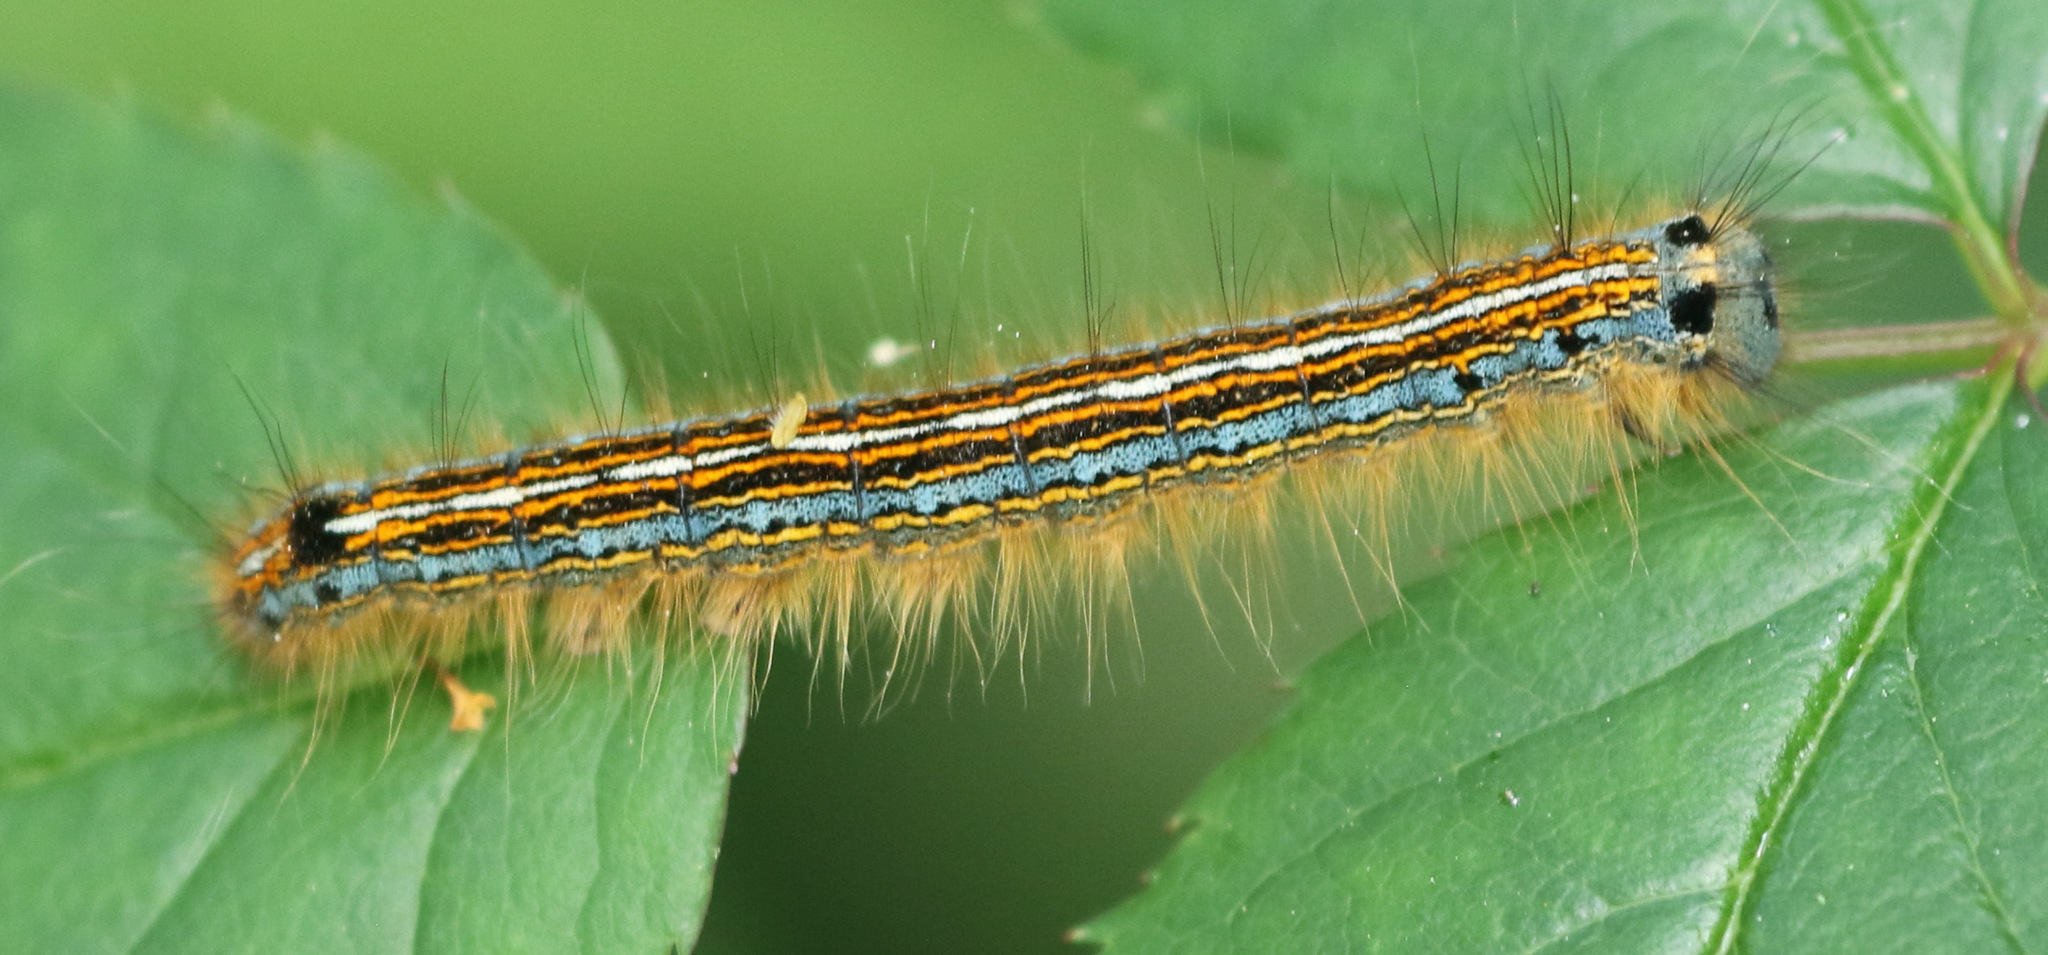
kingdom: Animalia
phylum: Arthropoda
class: Insecta
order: Lepidoptera
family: Lasiocampidae
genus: Malacosoma
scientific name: Malacosoma neustria
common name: The lackey
